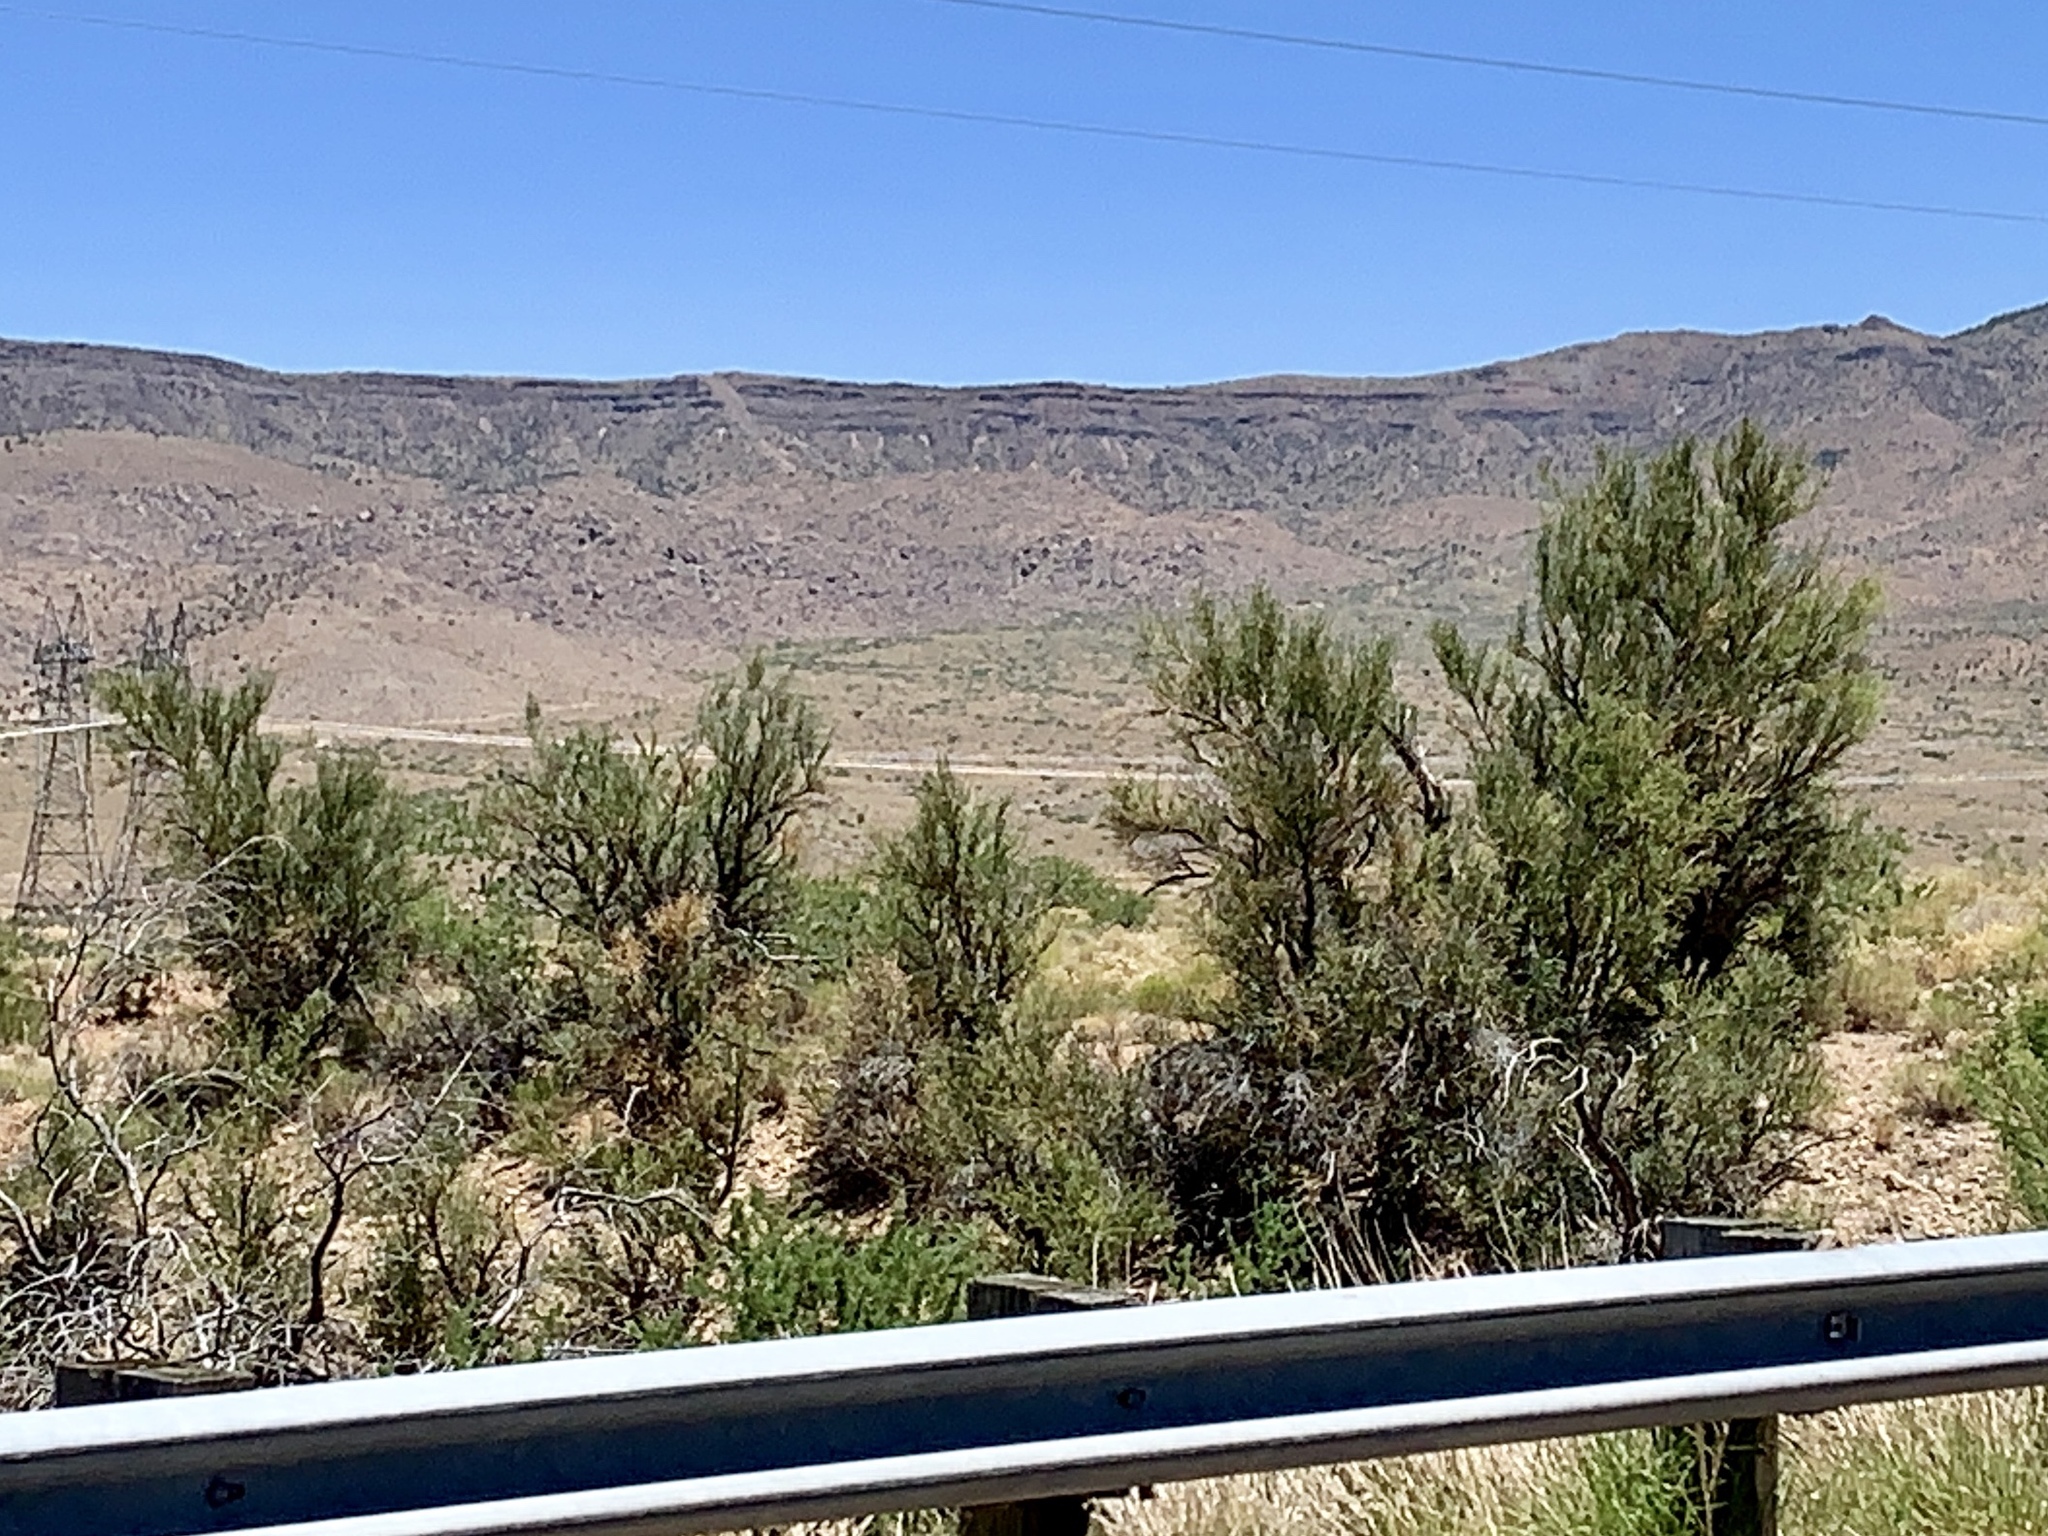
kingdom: Plantae
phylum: Tracheophyta
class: Magnoliopsida
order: Celastrales
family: Celastraceae
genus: Canotia
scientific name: Canotia holacantha
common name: Crucifixion thorns
